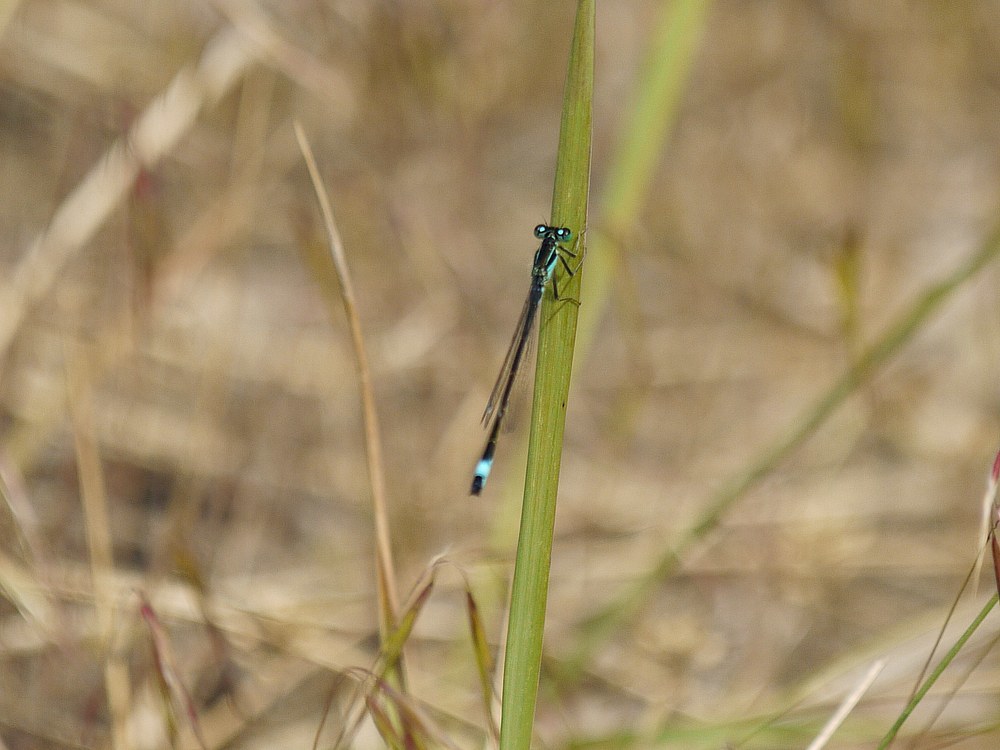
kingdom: Animalia
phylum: Arthropoda
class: Insecta
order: Odonata
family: Coenagrionidae
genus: Ischnura
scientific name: Ischnura elegans
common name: Blue-tailed damselfly
